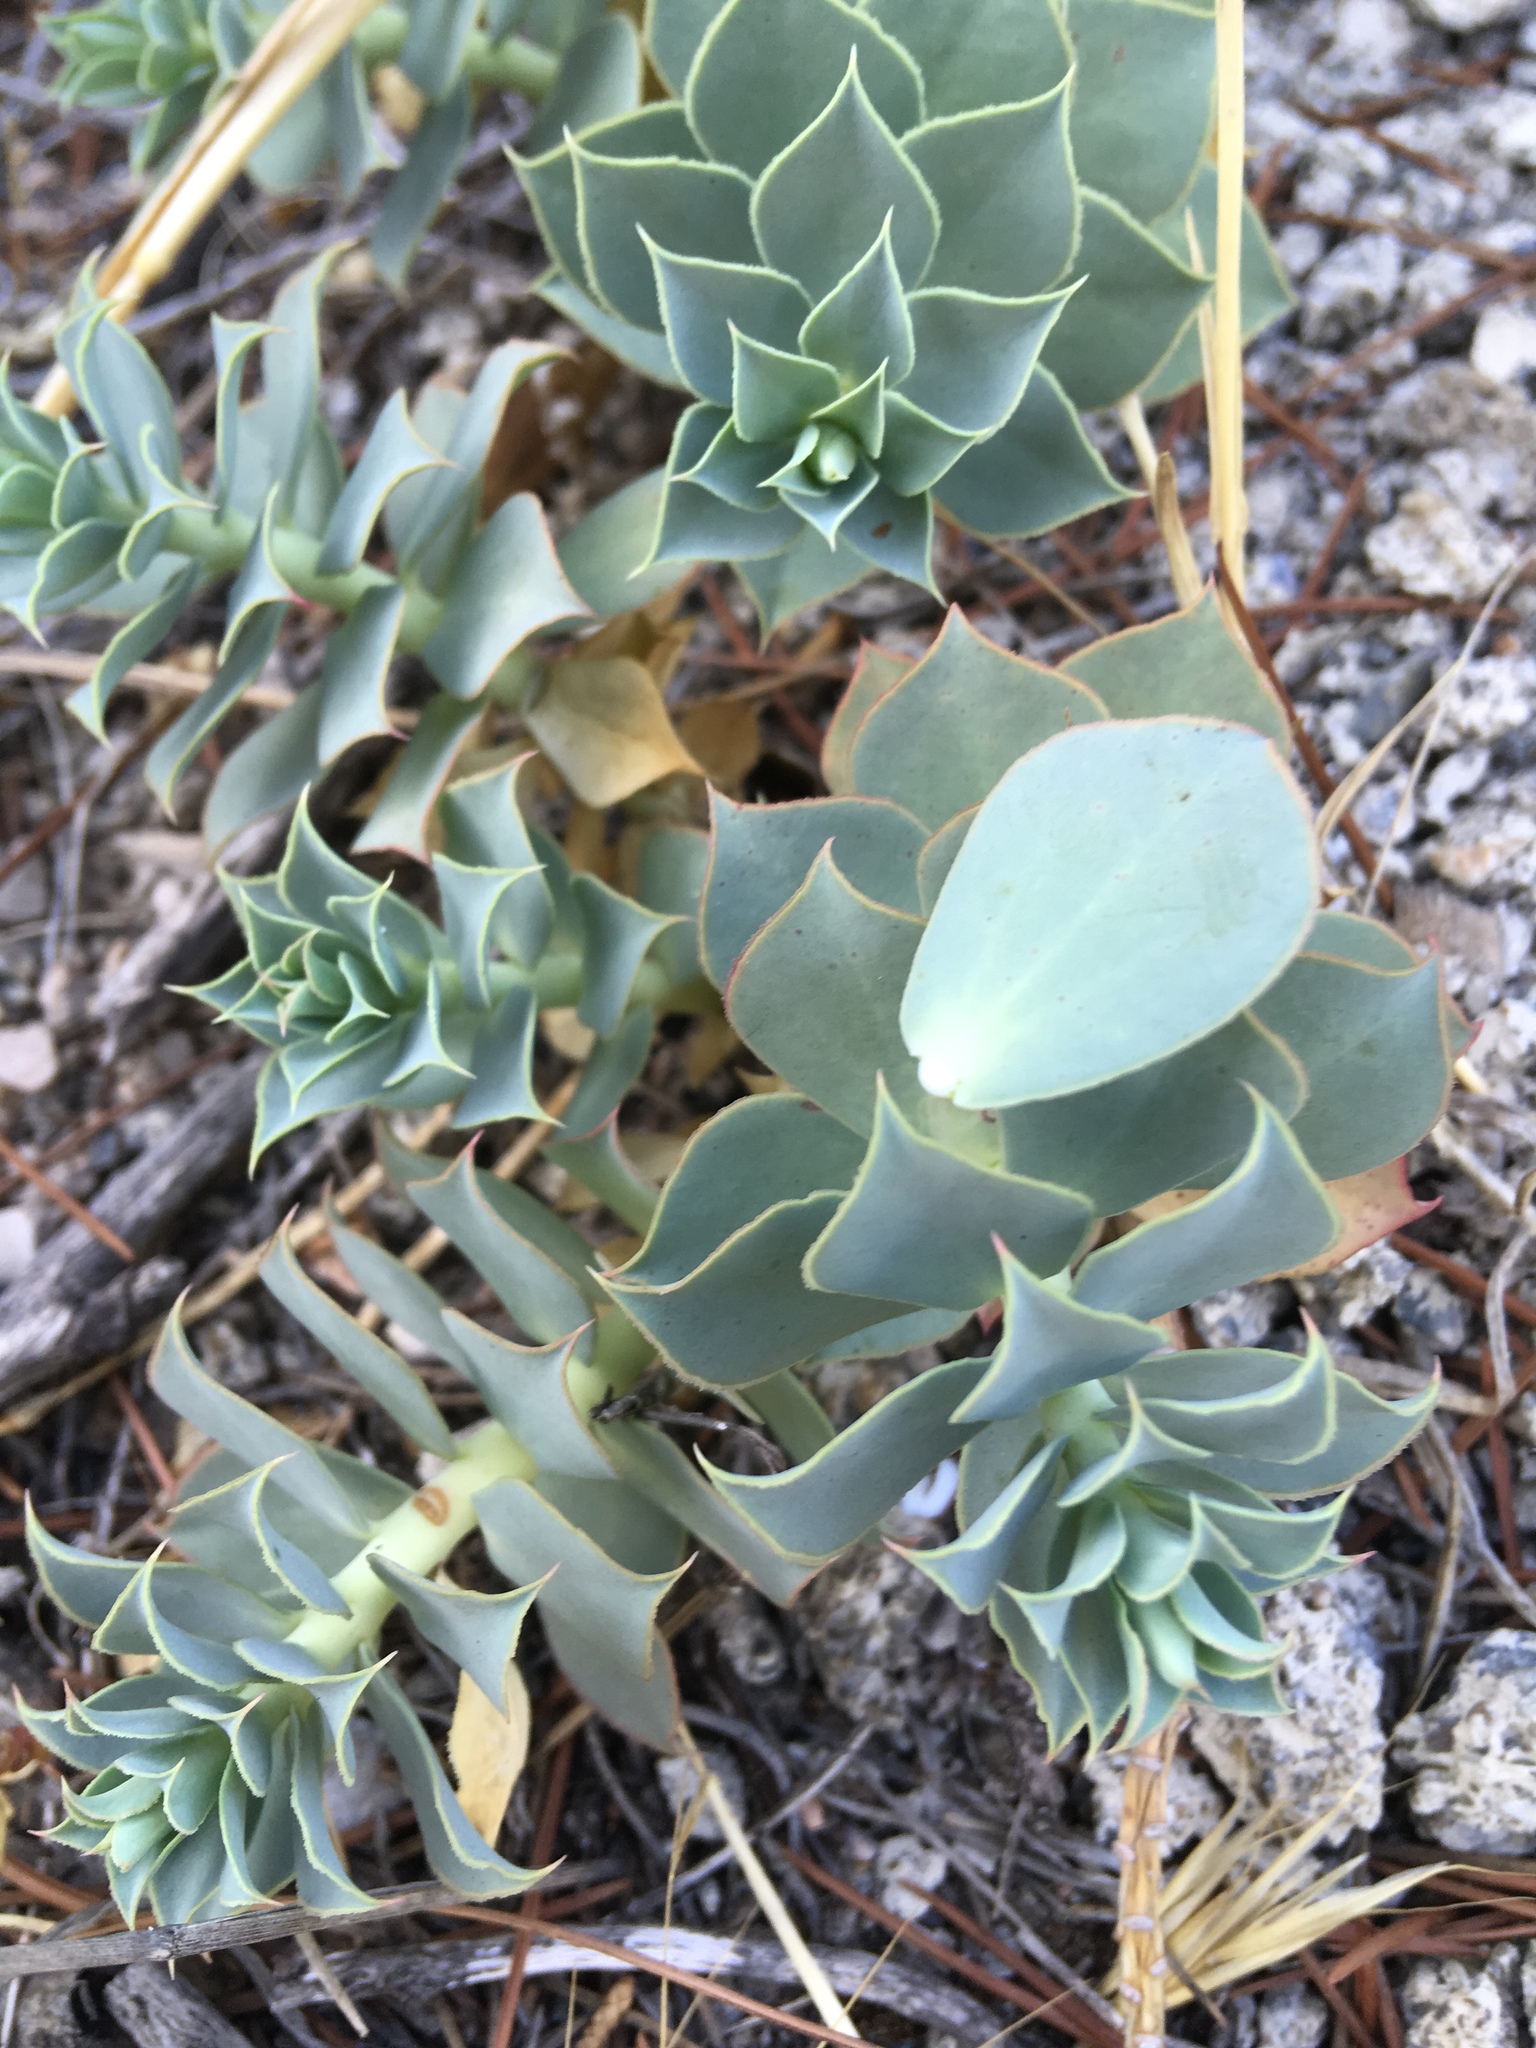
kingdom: Plantae
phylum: Tracheophyta
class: Magnoliopsida
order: Malpighiales
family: Euphorbiaceae
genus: Euphorbia
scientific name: Euphorbia myrsinites
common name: Myrtle spurge
